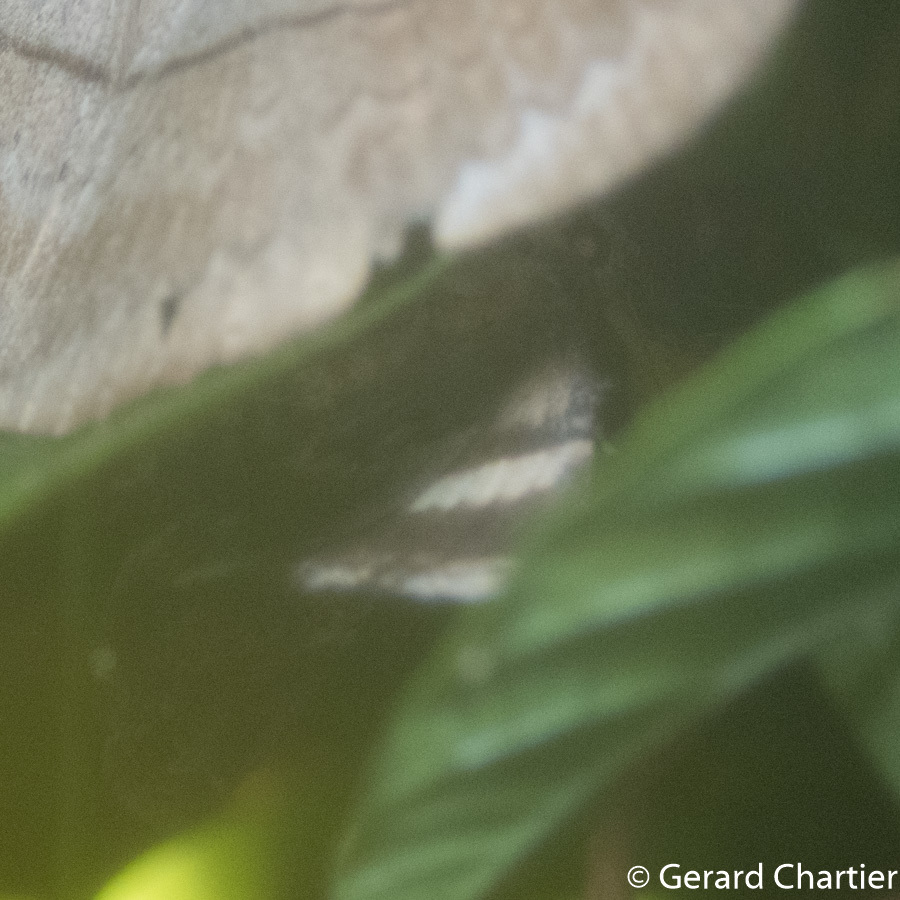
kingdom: Animalia
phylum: Arthropoda
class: Insecta
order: Lepidoptera
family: Erebidae
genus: Ercheia
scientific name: Ercheia pulchrivenula
